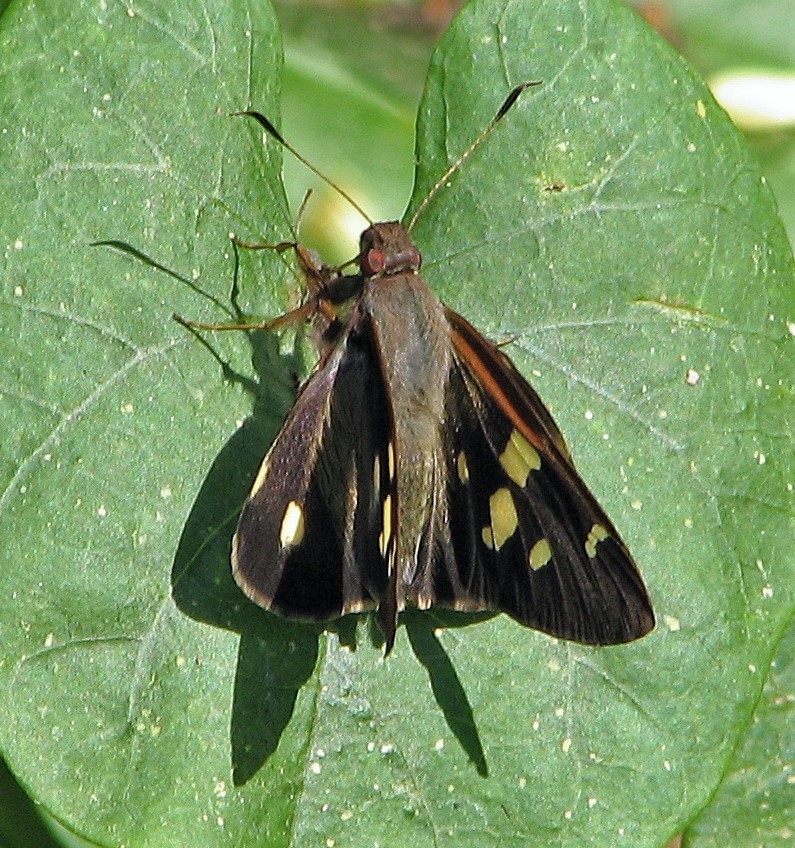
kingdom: Animalia
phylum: Arthropoda
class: Insecta
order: Lepidoptera
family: Hesperiidae
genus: Lycas
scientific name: Lycas argentea
